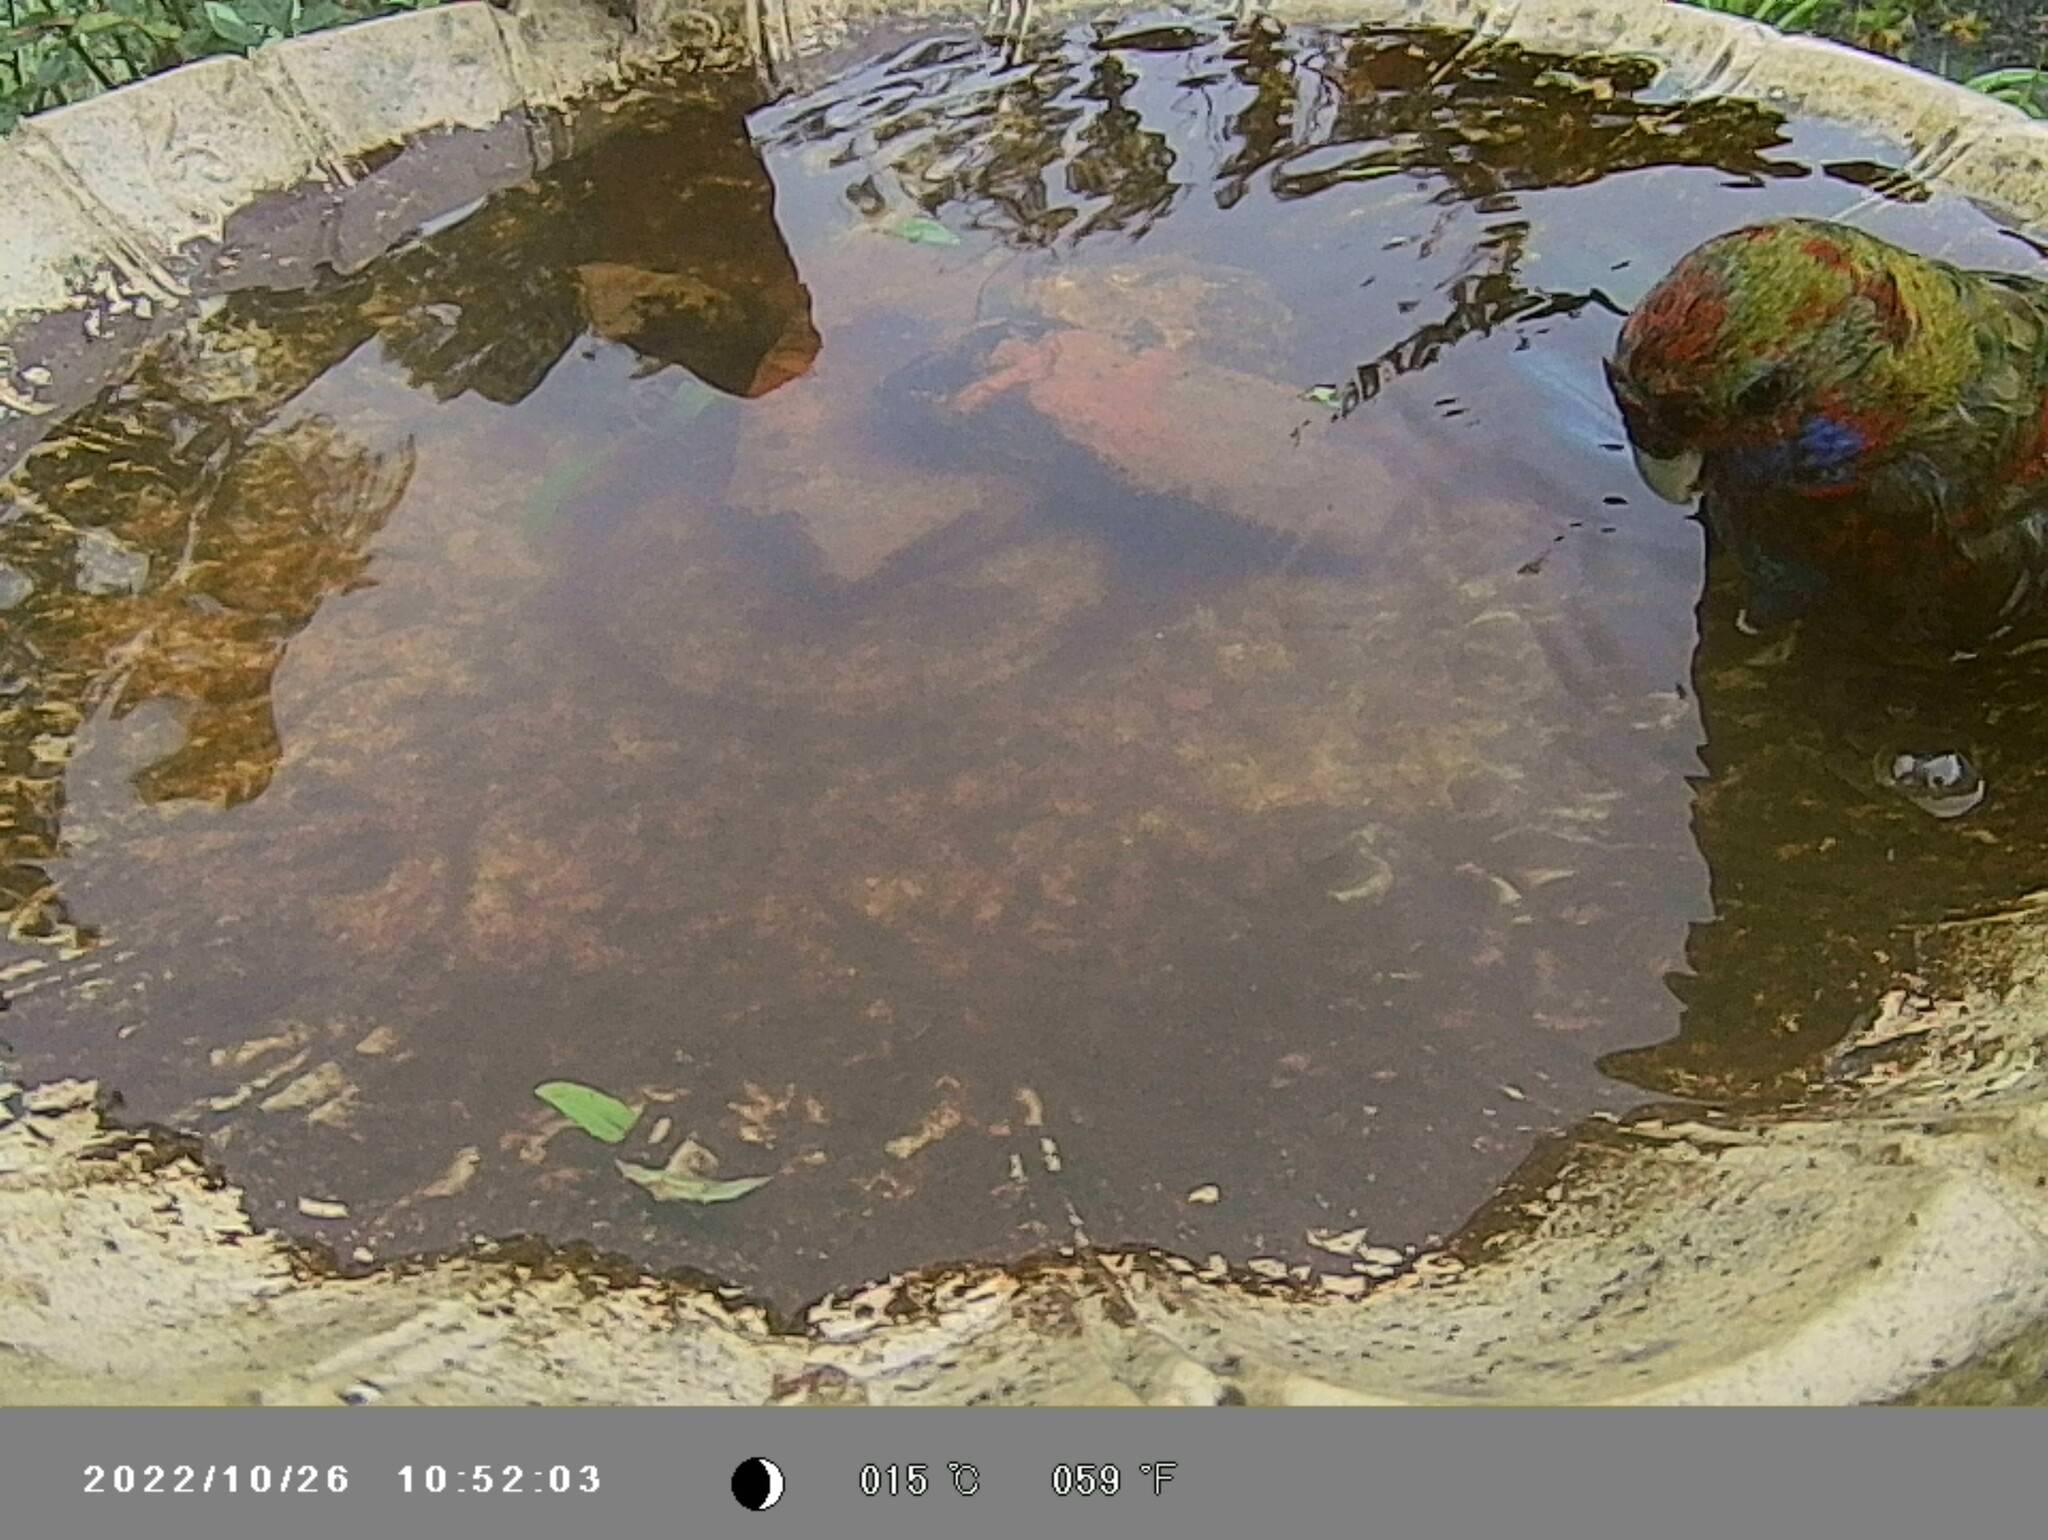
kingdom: Animalia
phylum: Chordata
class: Aves
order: Psittaciformes
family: Psittacidae
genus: Platycercus
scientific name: Platycercus elegans
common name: Crimson rosella
